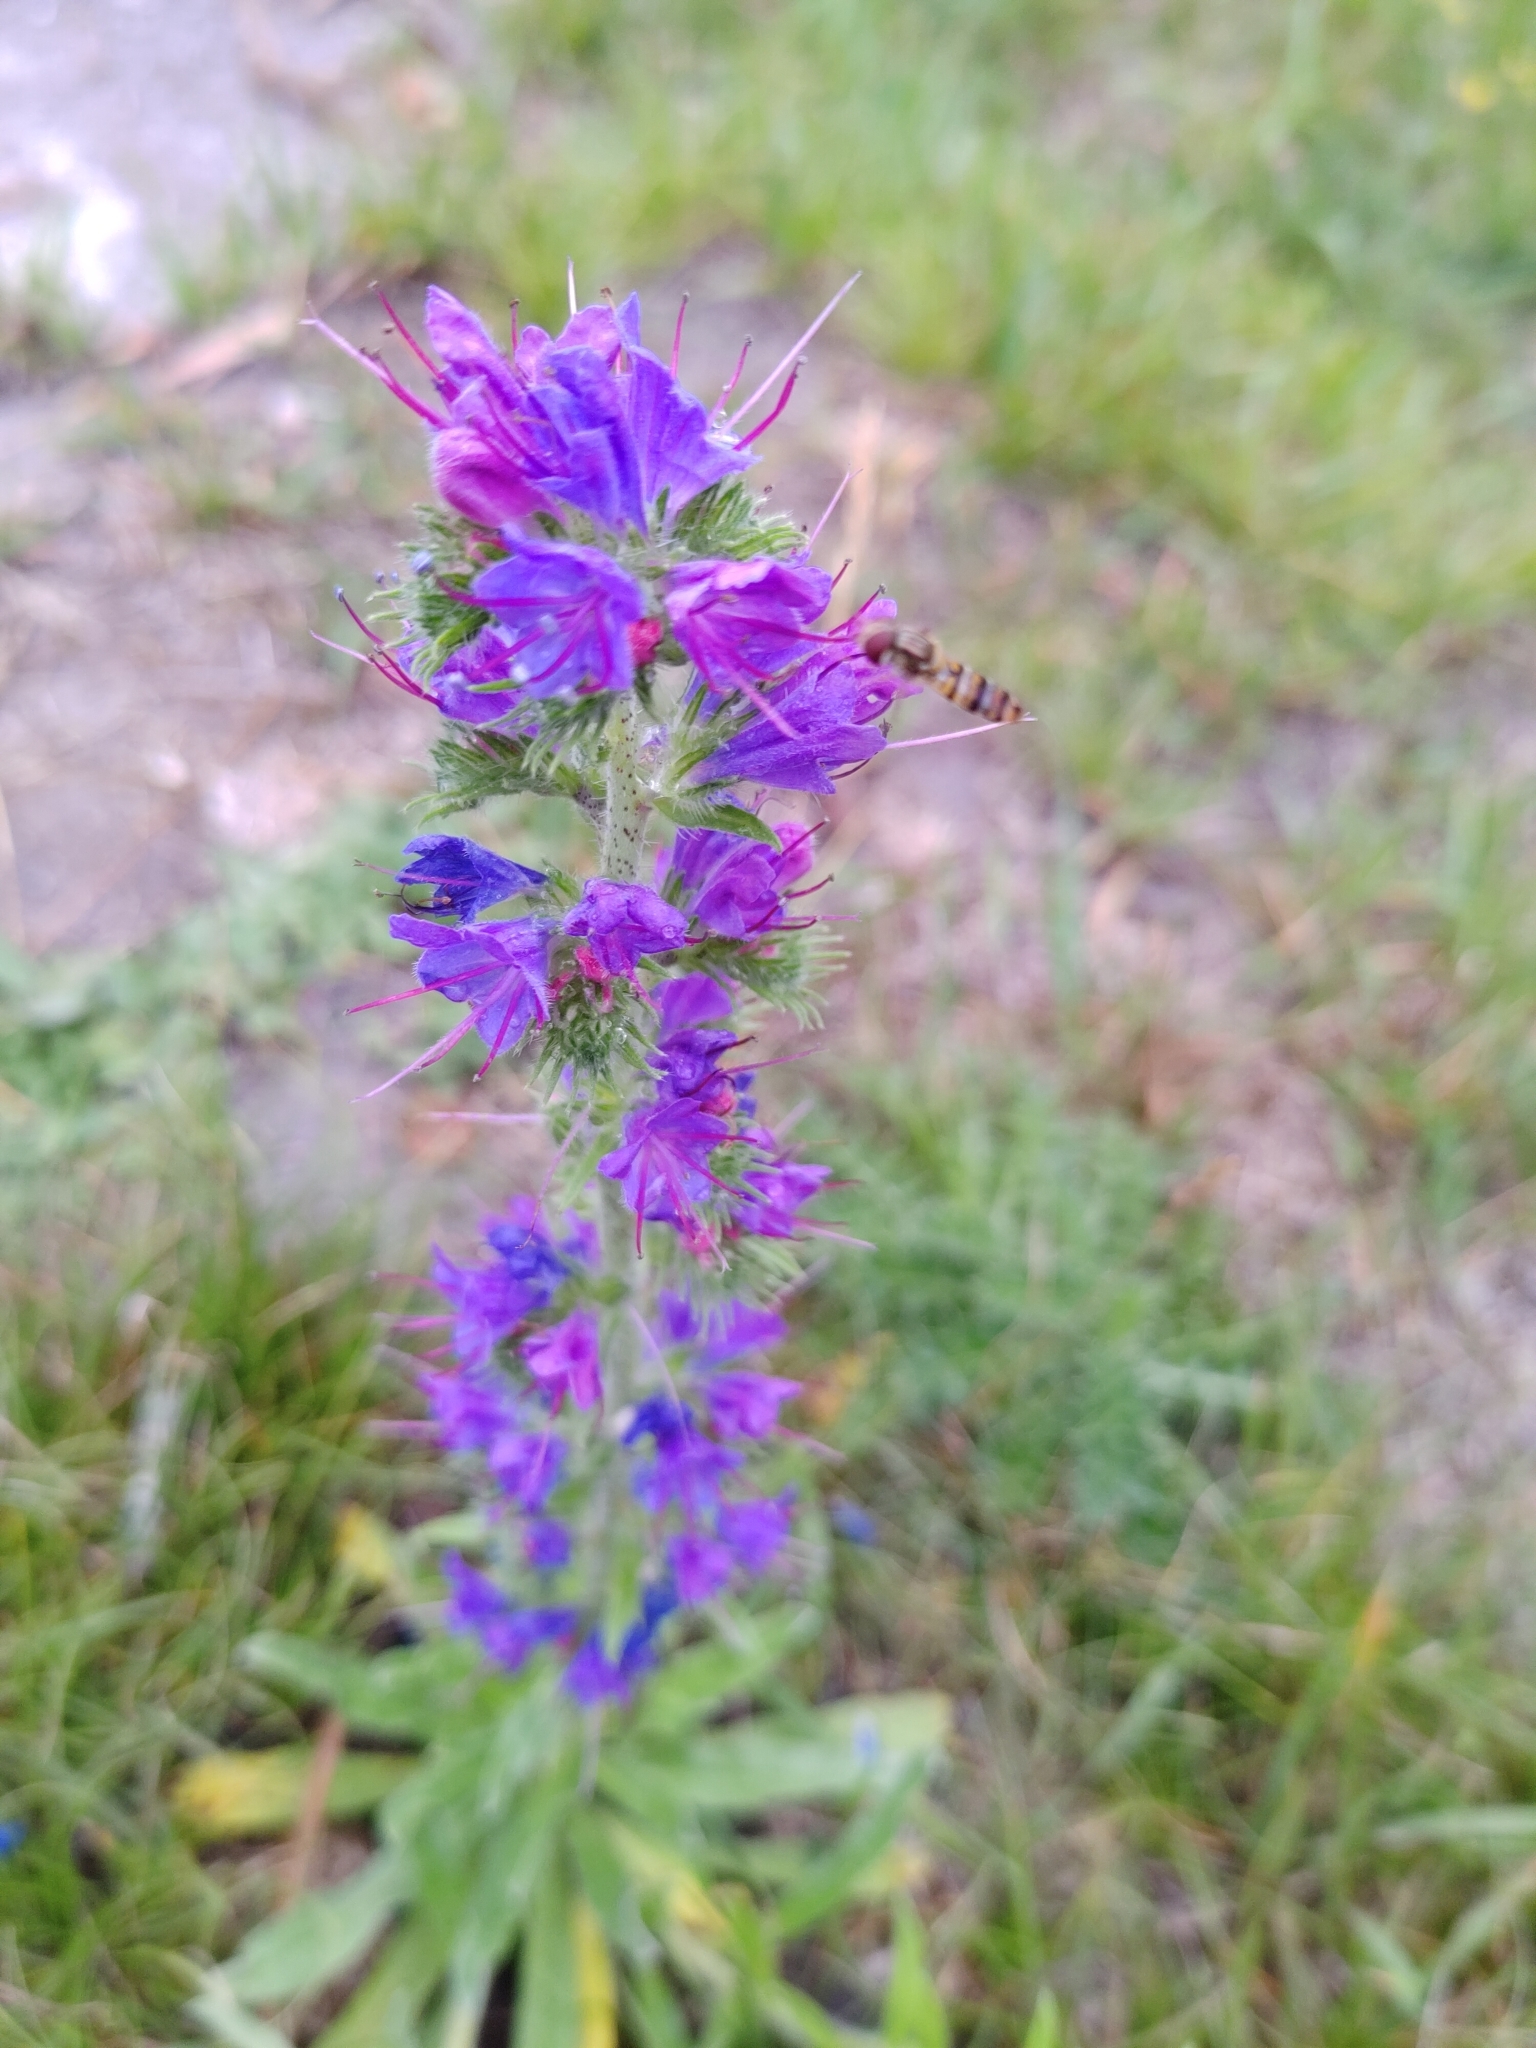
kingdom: Plantae
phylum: Tracheophyta
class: Magnoliopsida
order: Boraginales
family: Boraginaceae
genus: Echium
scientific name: Echium vulgare
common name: Common viper's bugloss
